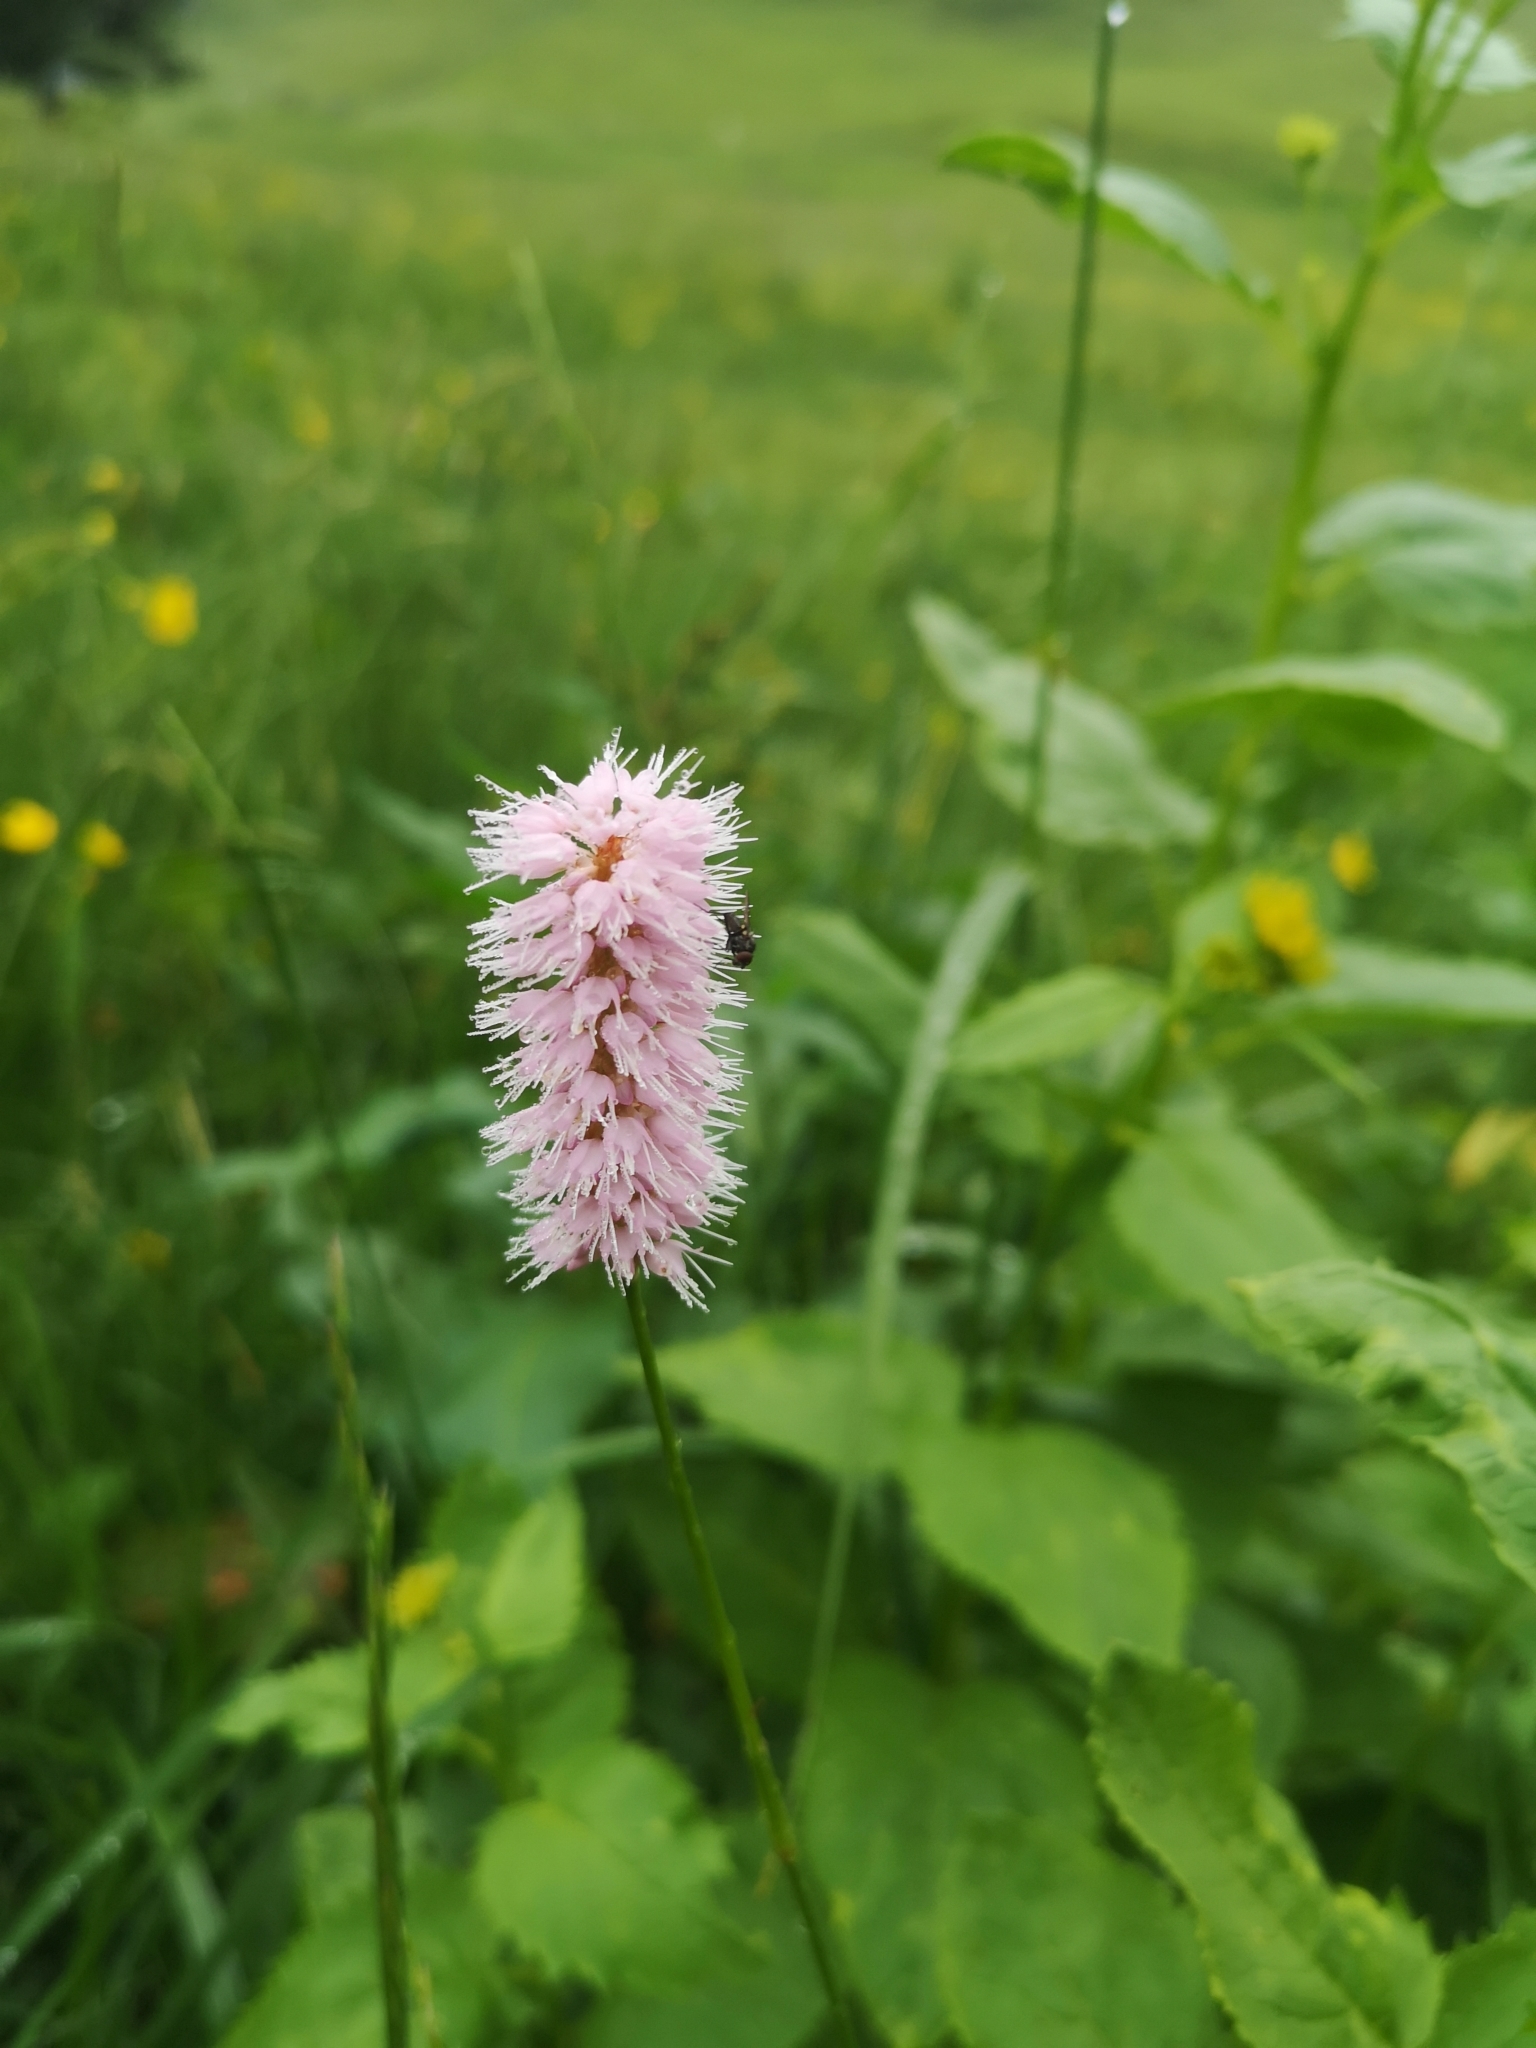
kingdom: Plantae
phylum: Tracheophyta
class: Magnoliopsida
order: Caryophyllales
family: Polygonaceae
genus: Bistorta
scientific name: Bistorta officinalis
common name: Common bistort
